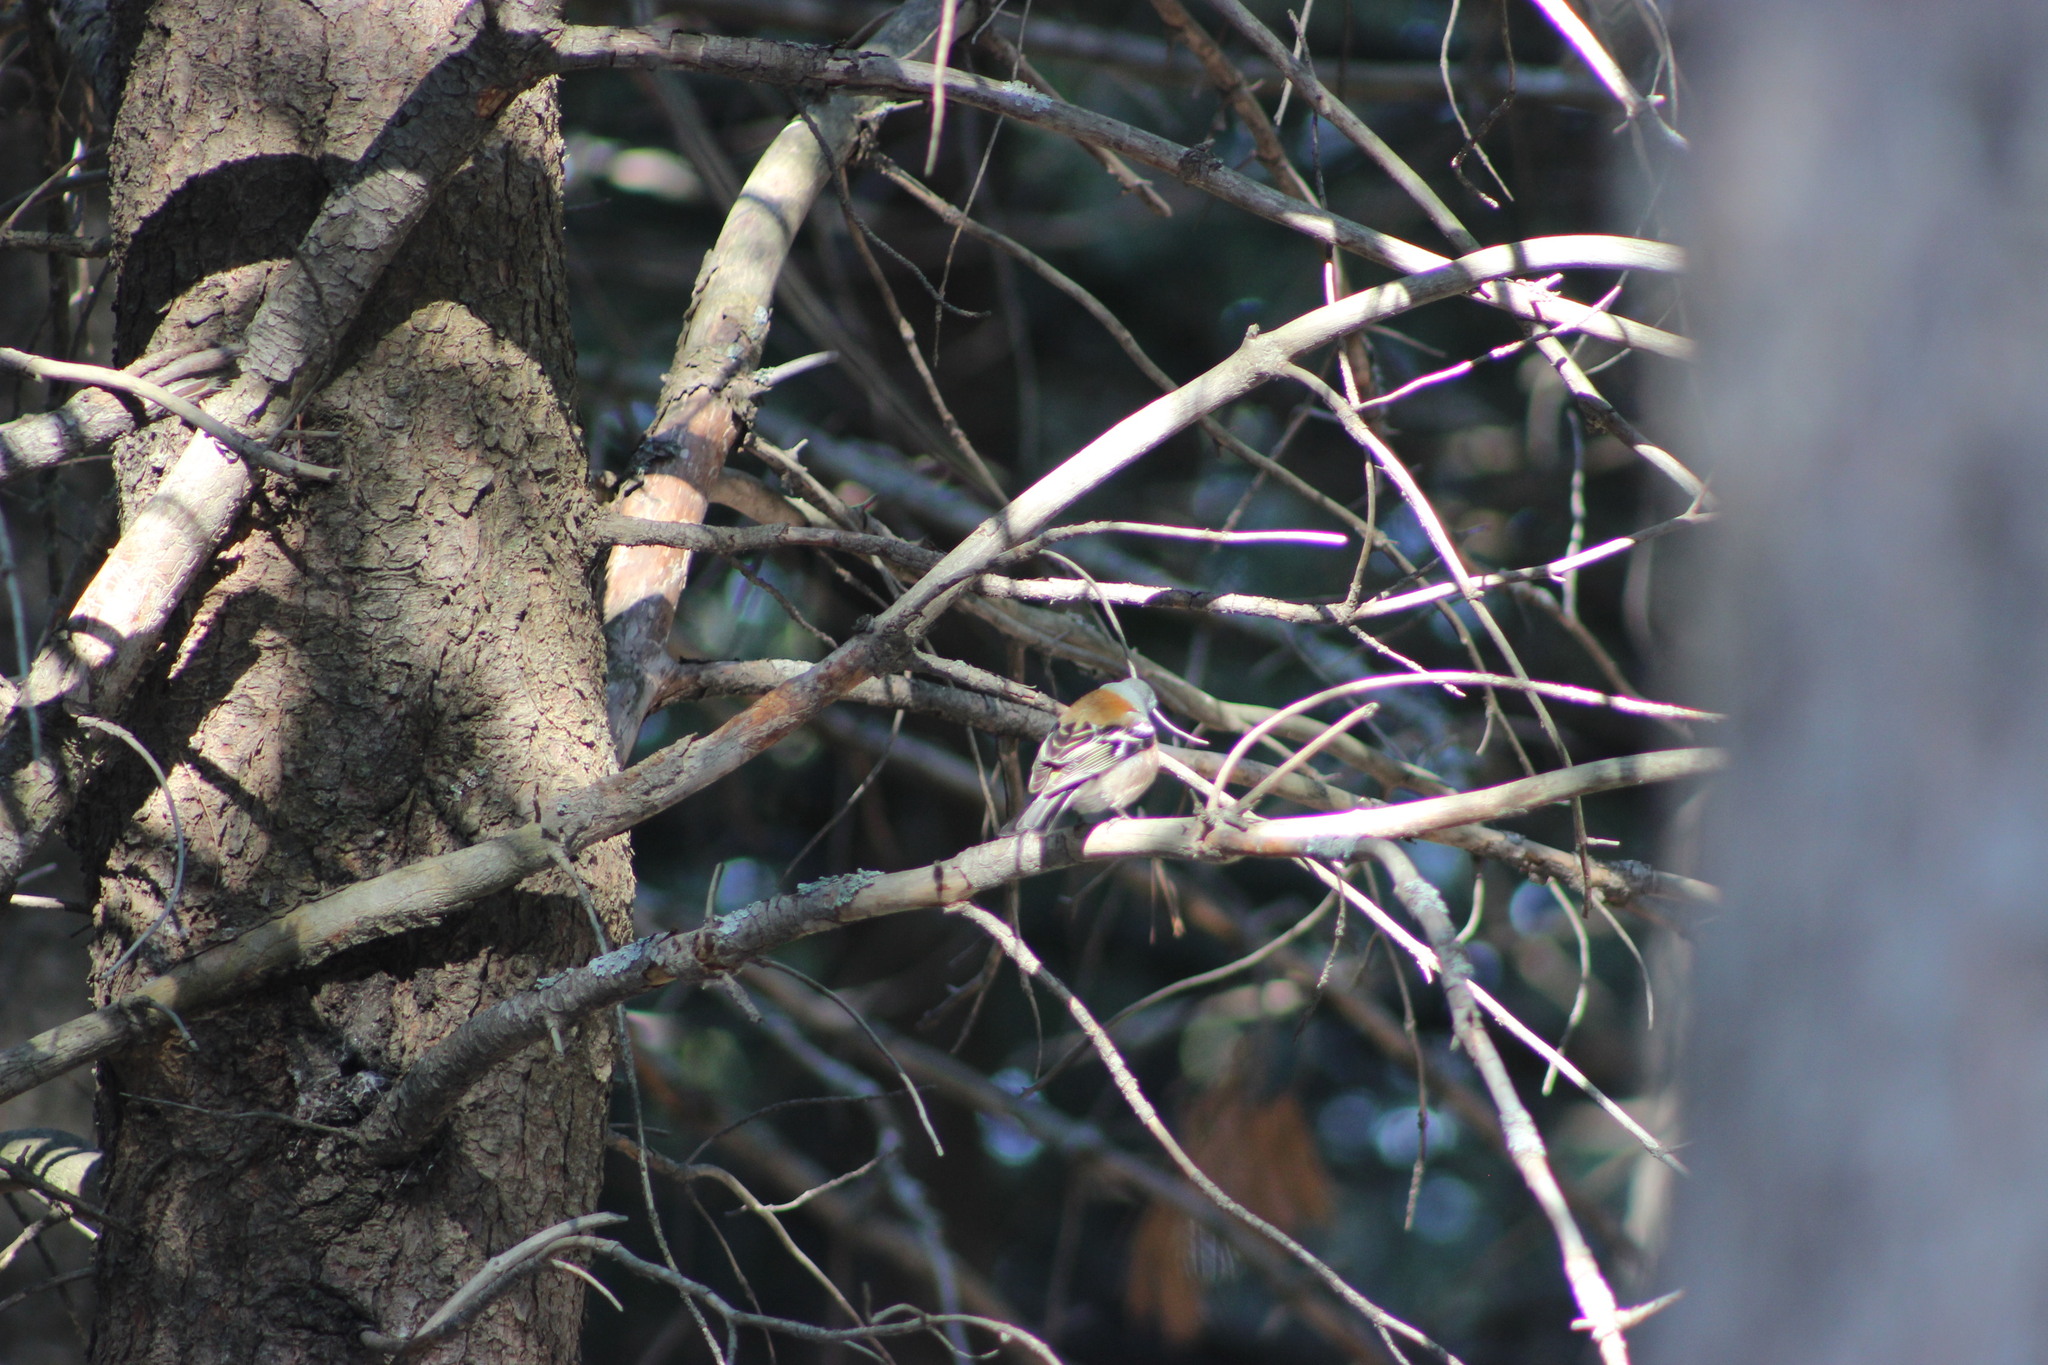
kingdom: Animalia
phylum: Chordata
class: Aves
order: Passeriformes
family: Fringillidae
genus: Fringilla
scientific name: Fringilla coelebs
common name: Common chaffinch
